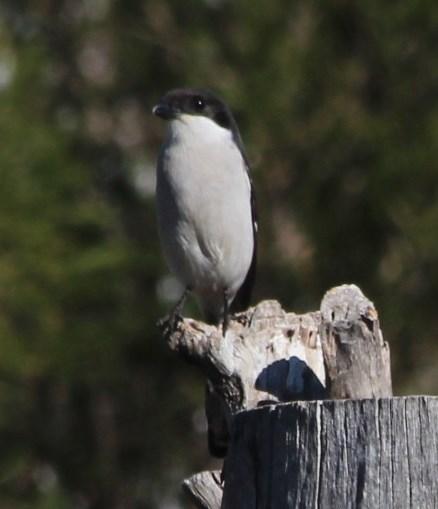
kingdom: Animalia
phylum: Chordata
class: Aves
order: Passeriformes
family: Laniidae
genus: Lanius
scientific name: Lanius collaris
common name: Southern fiscal
